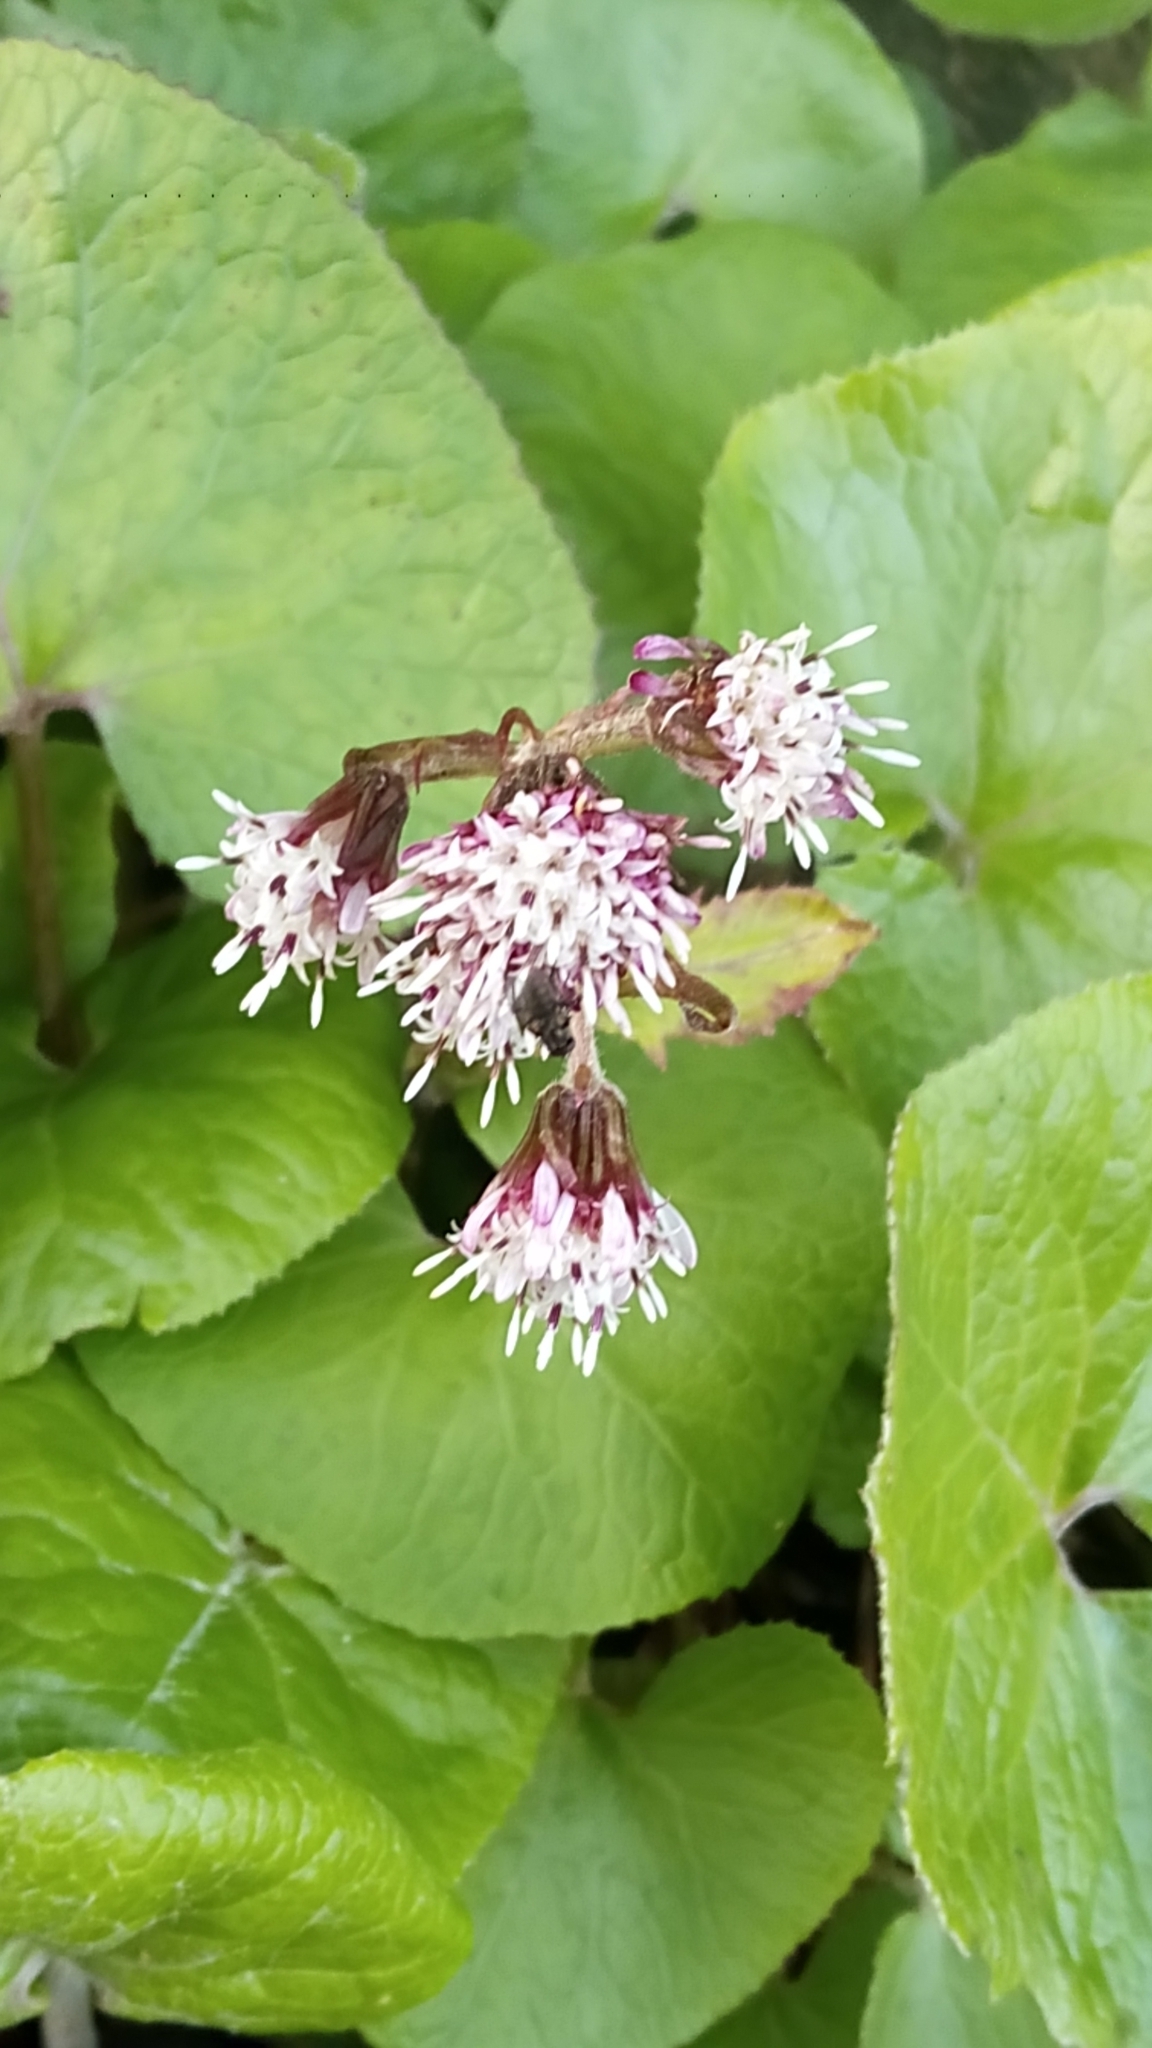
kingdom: Plantae
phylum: Tracheophyta
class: Magnoliopsida
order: Asterales
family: Asteraceae
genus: Petasites
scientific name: Petasites pyrenaicus
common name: Winter heliotrope
